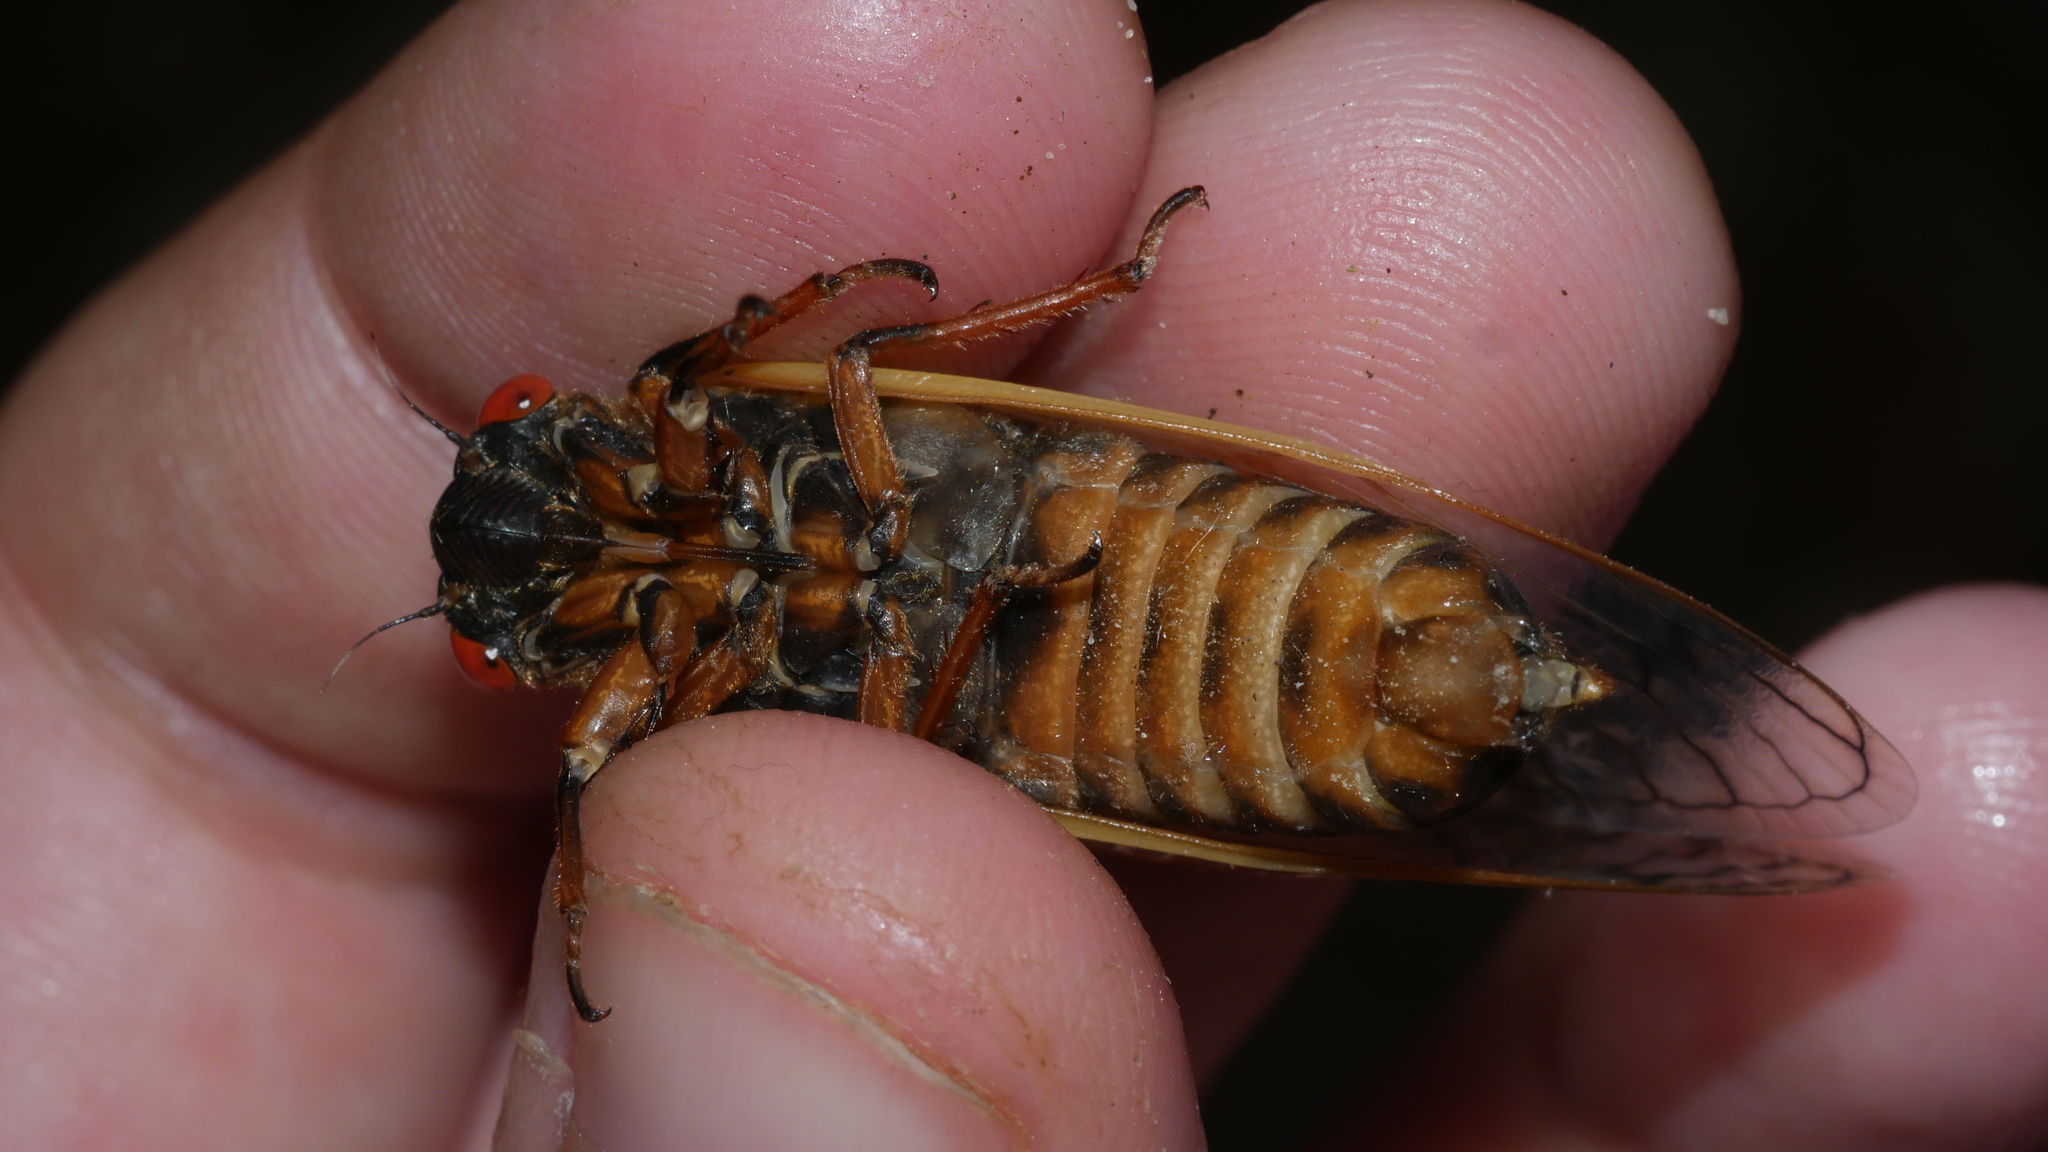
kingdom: Animalia
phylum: Arthropoda
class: Insecta
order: Hemiptera
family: Cicadidae
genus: Magicicada
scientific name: Magicicada septendecim
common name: Periodical cicada
